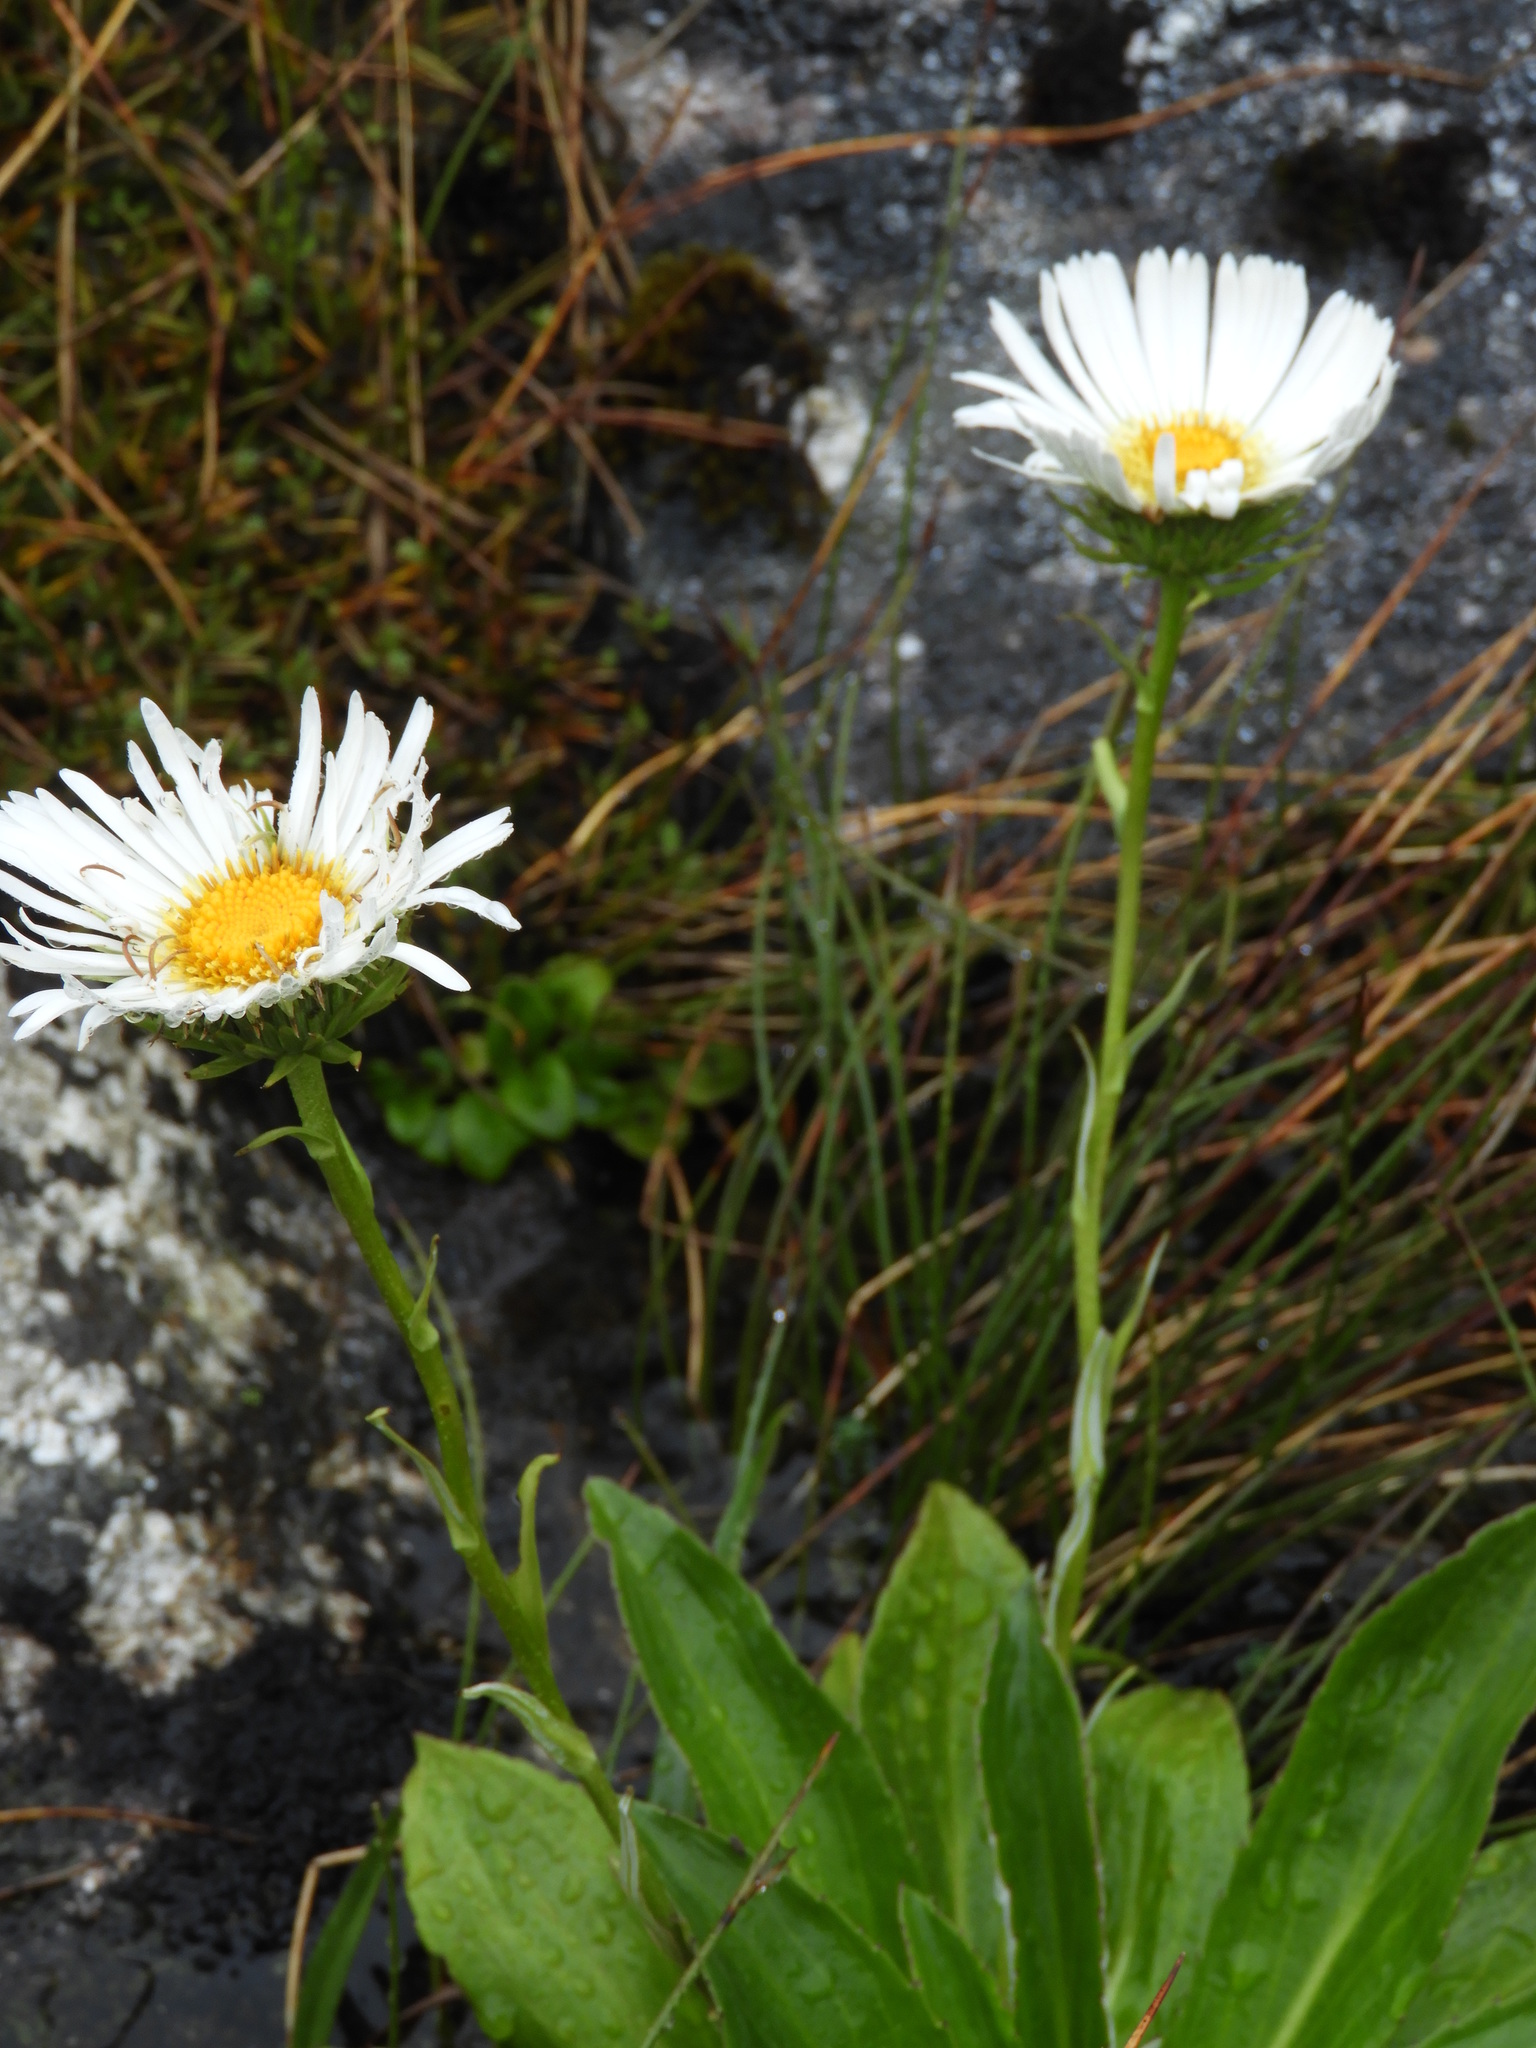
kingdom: Plantae
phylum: Tracheophyta
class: Magnoliopsida
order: Asterales
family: Asteraceae
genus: Celmisia
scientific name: Celmisia holosericea
